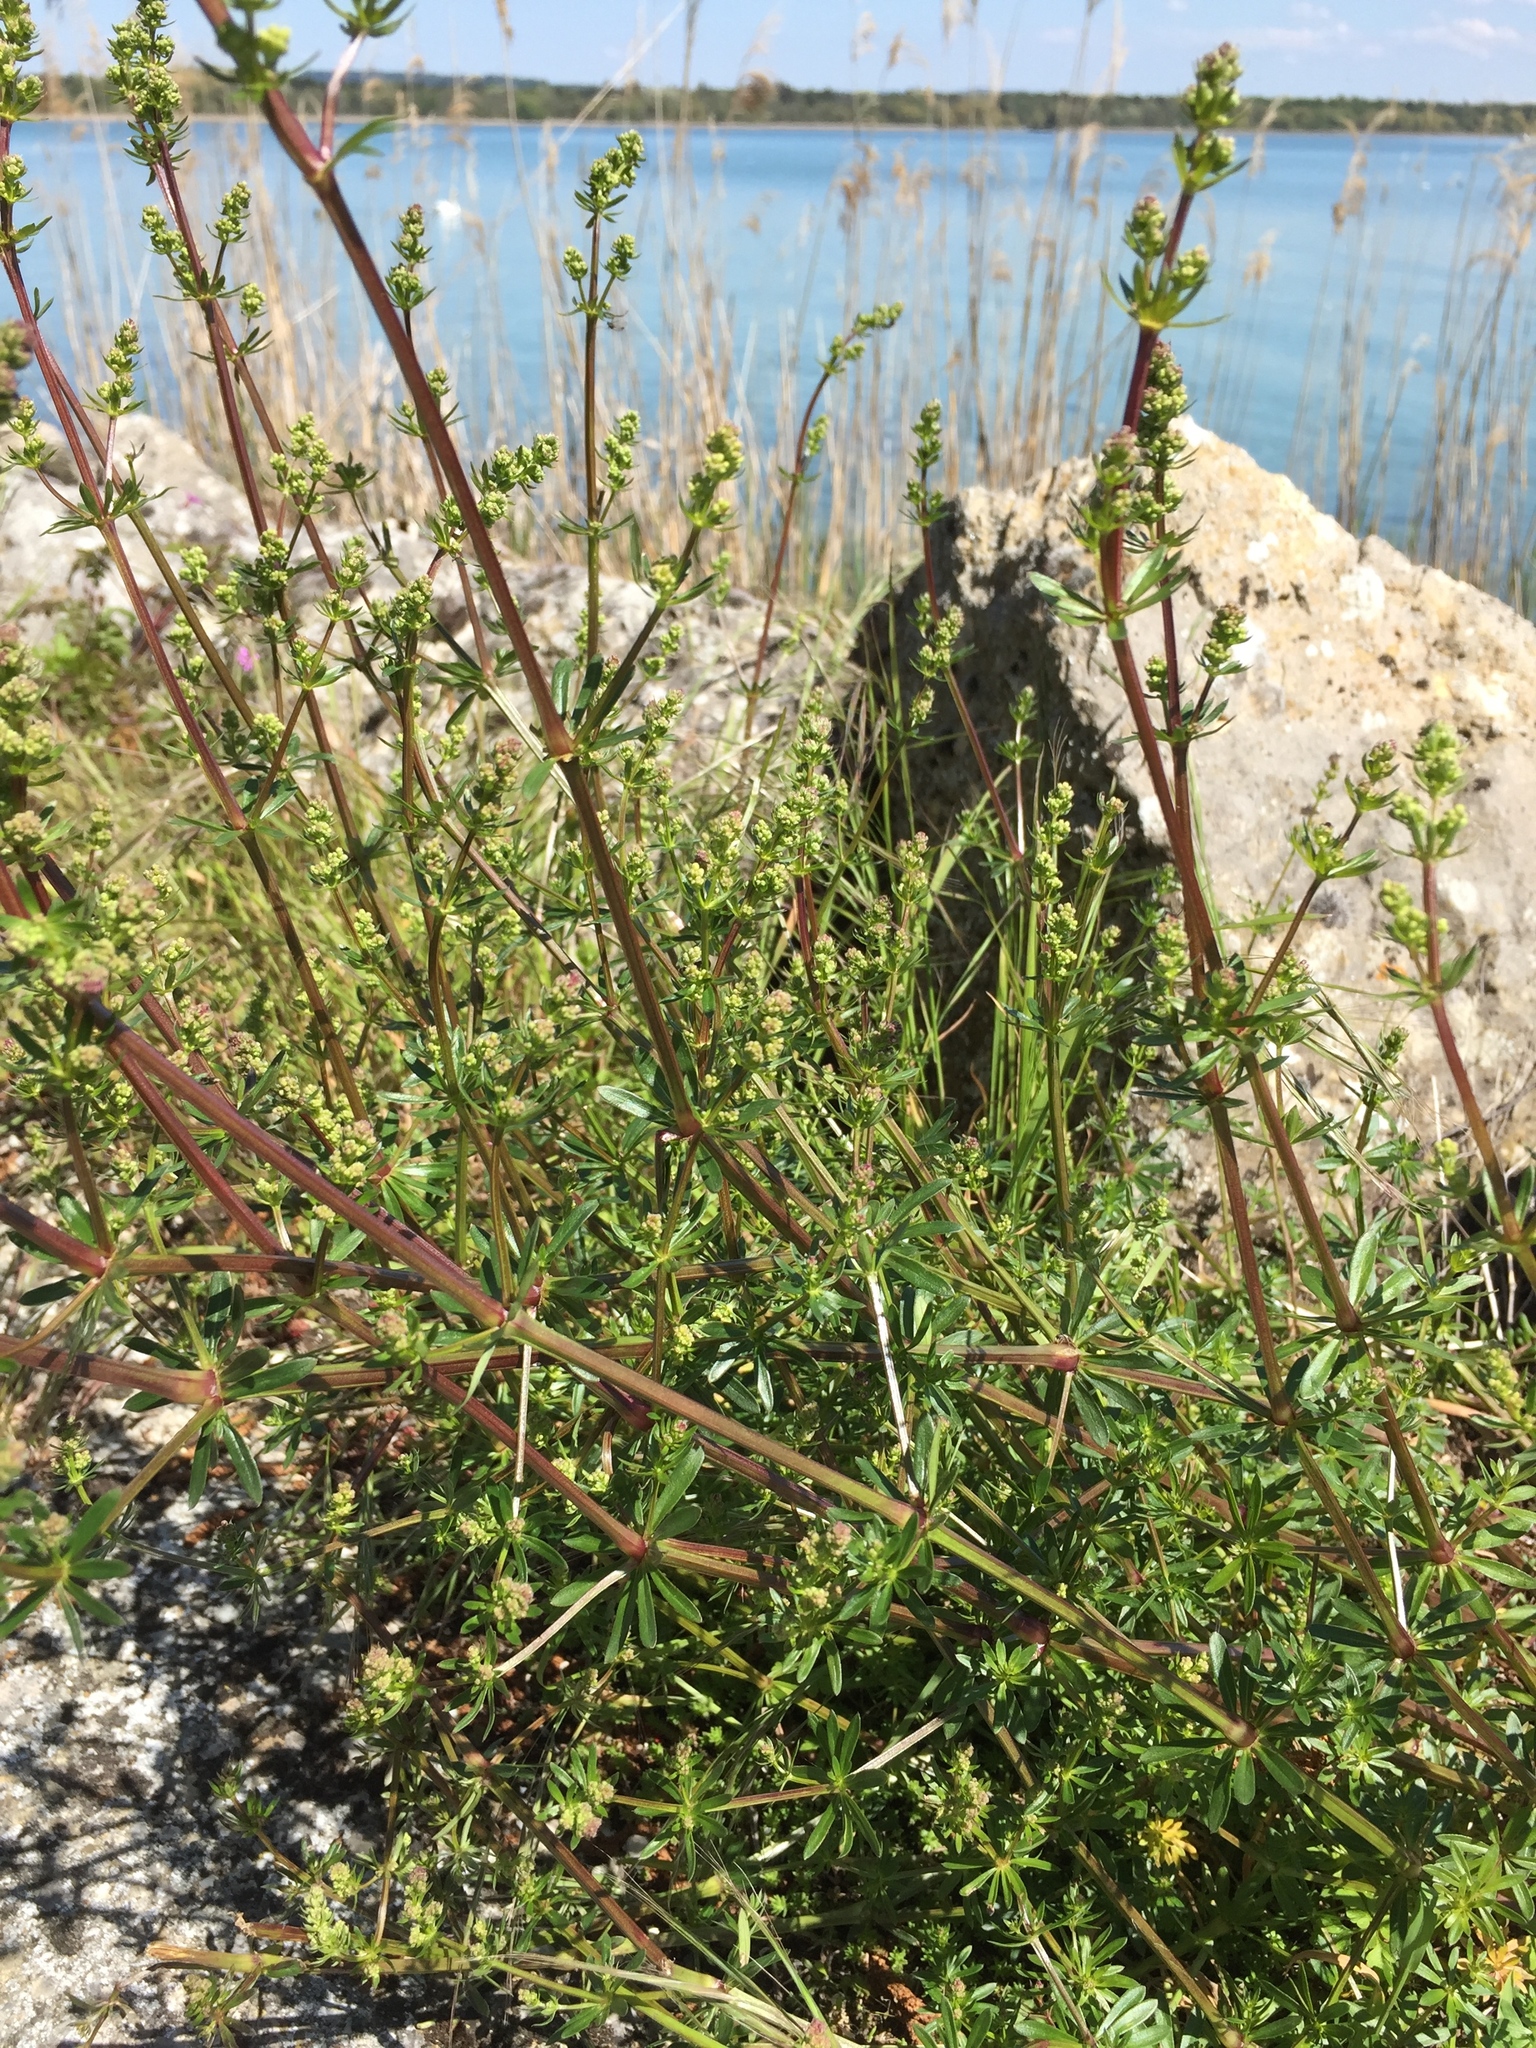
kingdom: Plantae
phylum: Tracheophyta
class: Magnoliopsida
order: Gentianales
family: Rubiaceae
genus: Galium
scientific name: Galium mollugo
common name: Hedge bedstraw
